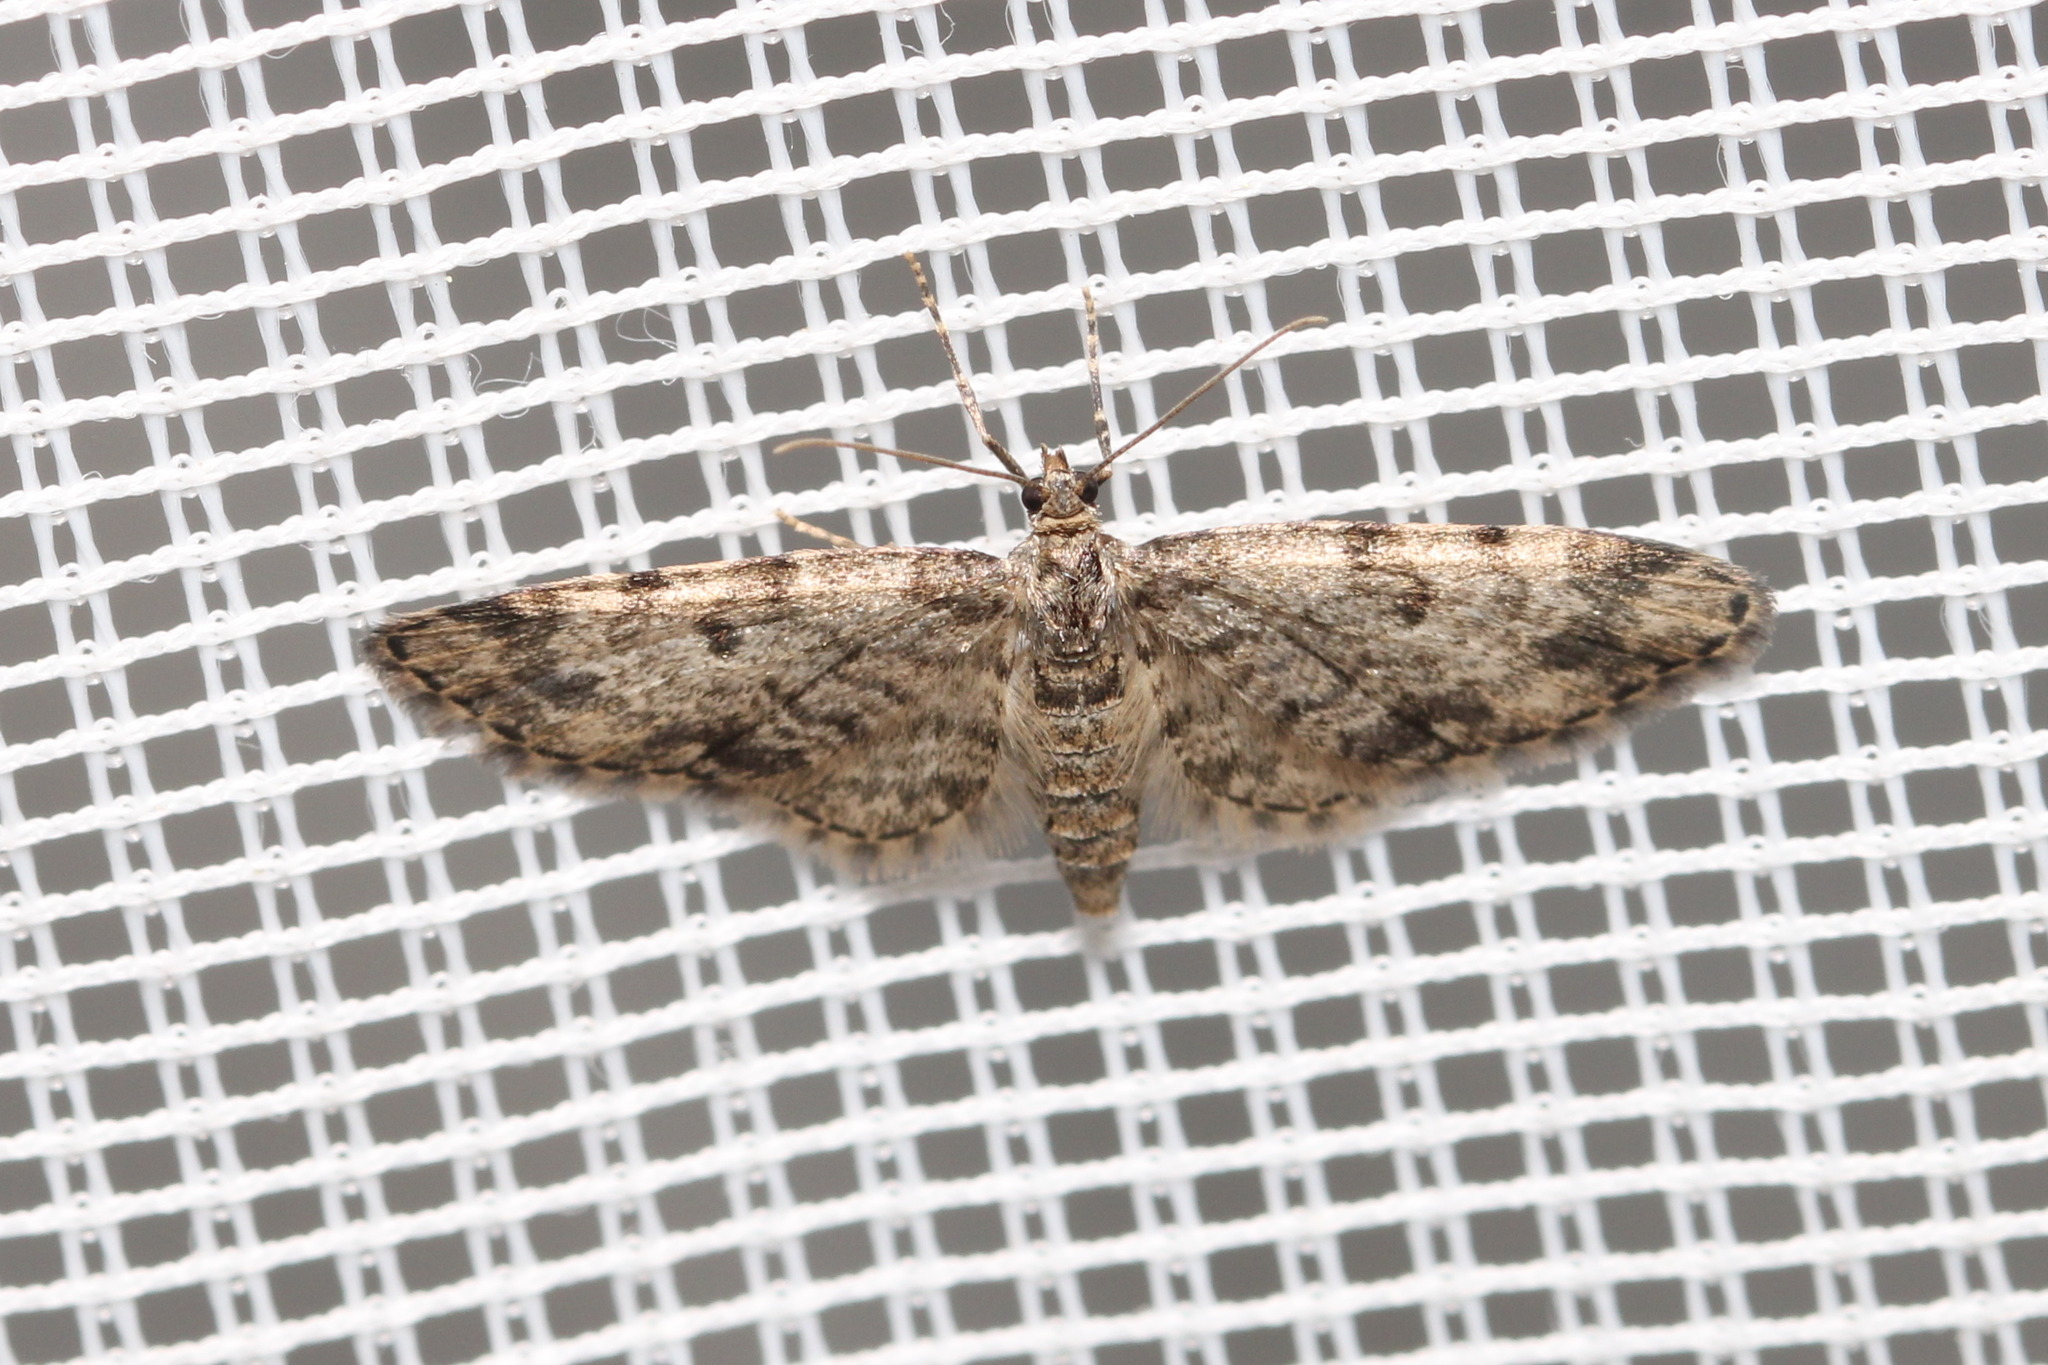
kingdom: Animalia
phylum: Arthropoda
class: Insecta
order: Lepidoptera
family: Geometridae
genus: Eupithecia
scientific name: Eupithecia tantillaria
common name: Dwarf pug
